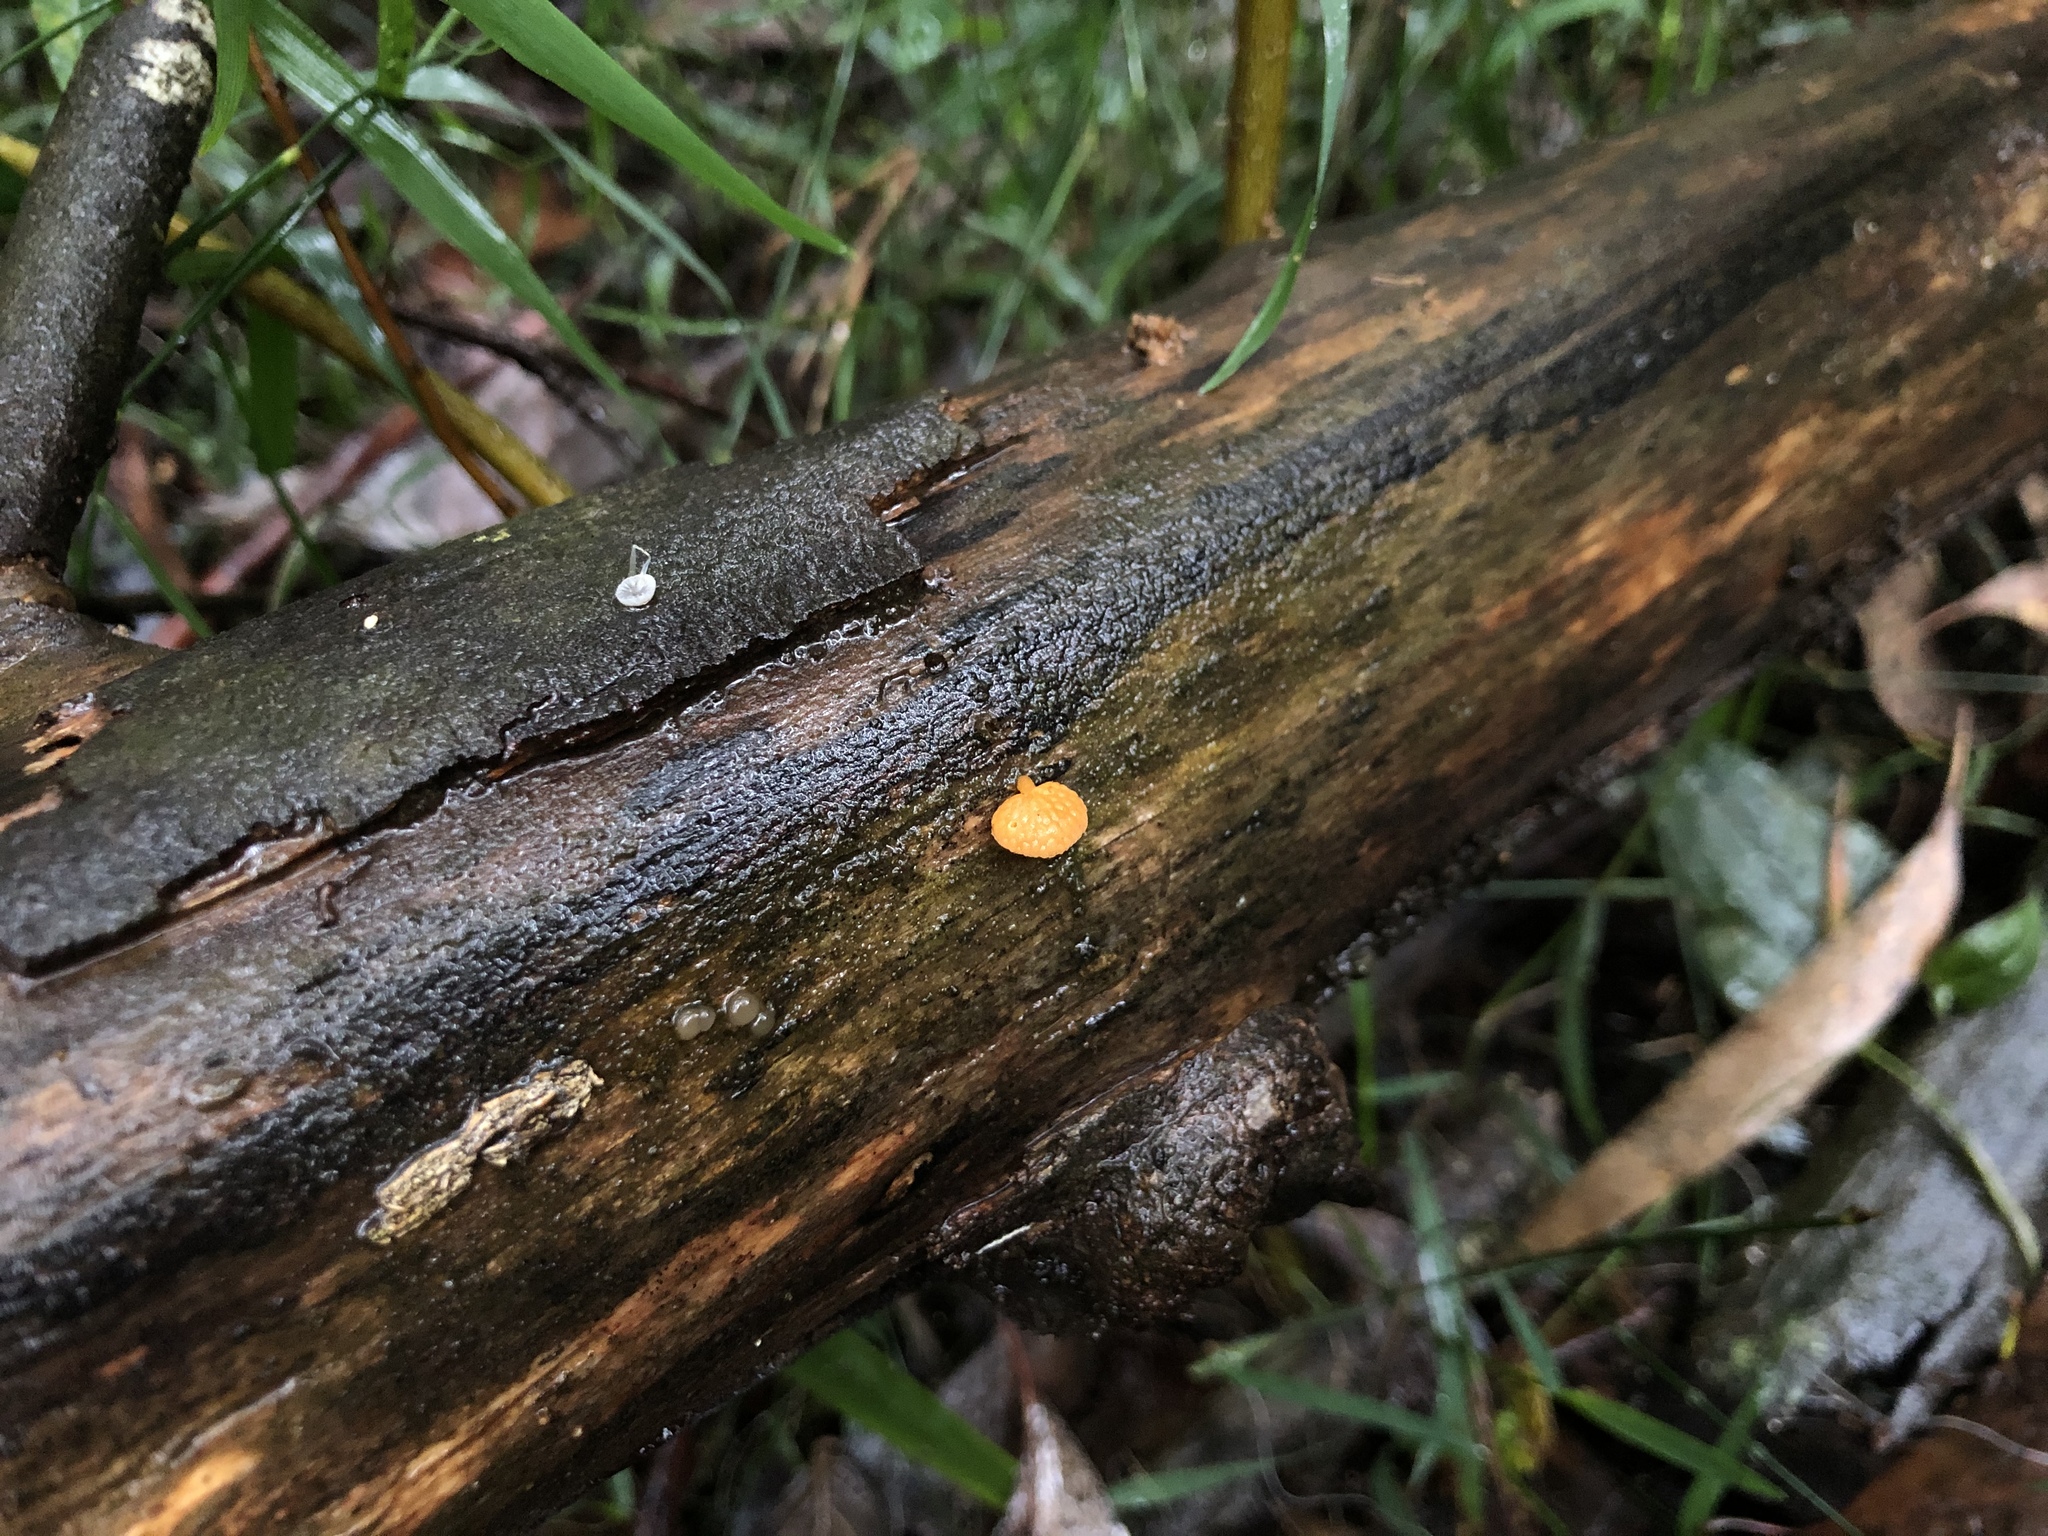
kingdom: Fungi
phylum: Basidiomycota
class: Agaricomycetes
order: Agaricales
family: Mycenaceae
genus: Favolaschia
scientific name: Favolaschia claudopus
